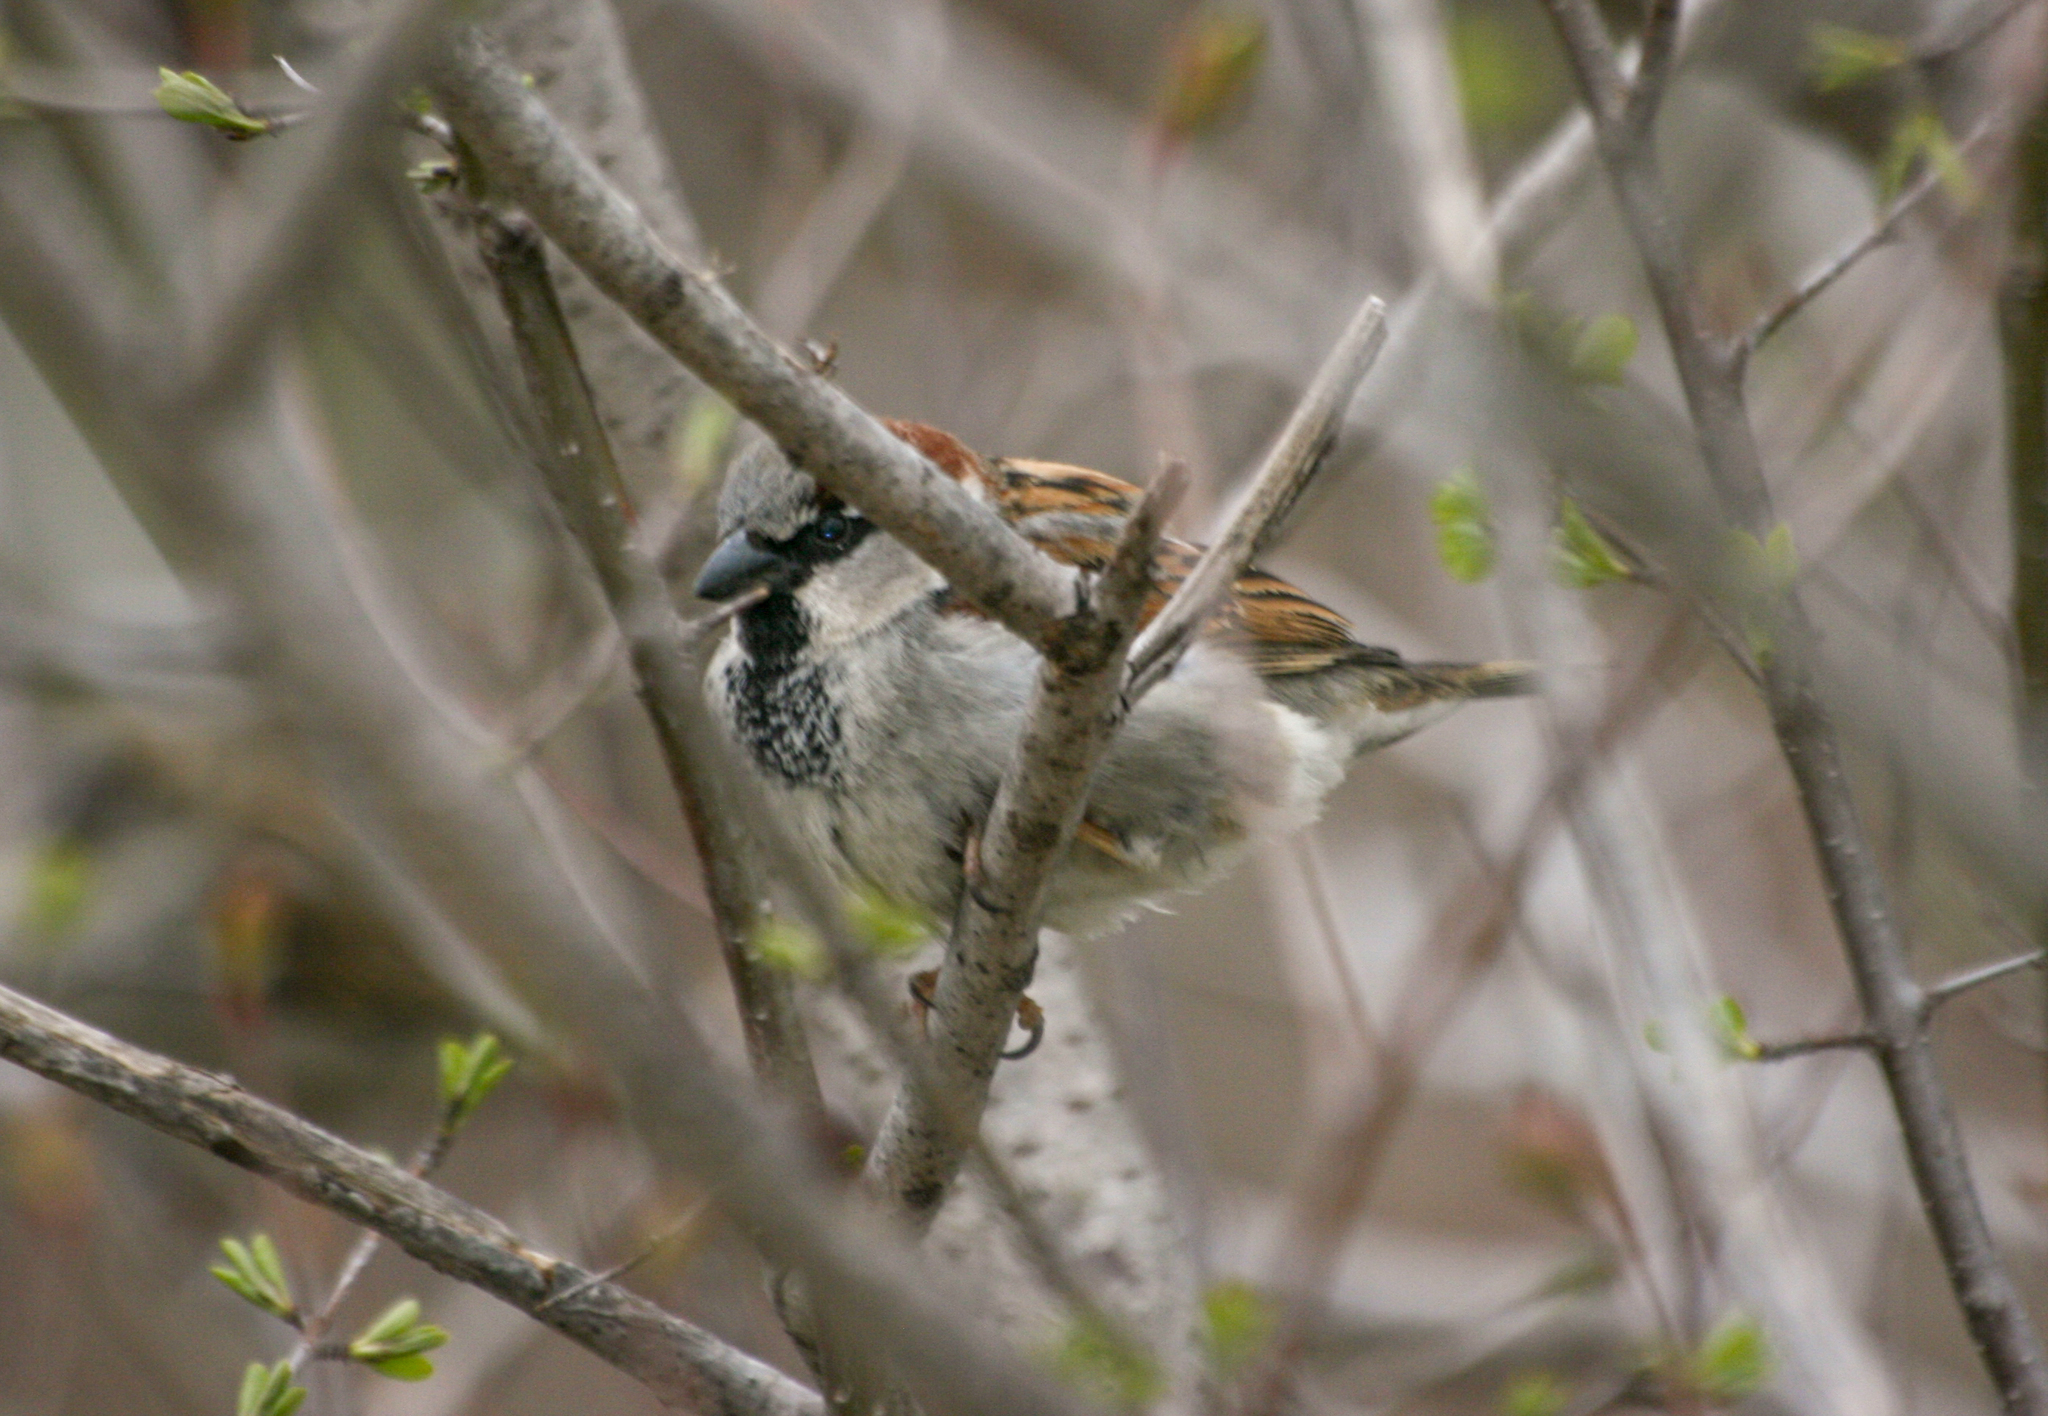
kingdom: Animalia
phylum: Chordata
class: Aves
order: Passeriformes
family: Passeridae
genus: Passer
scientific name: Passer domesticus
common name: House sparrow
